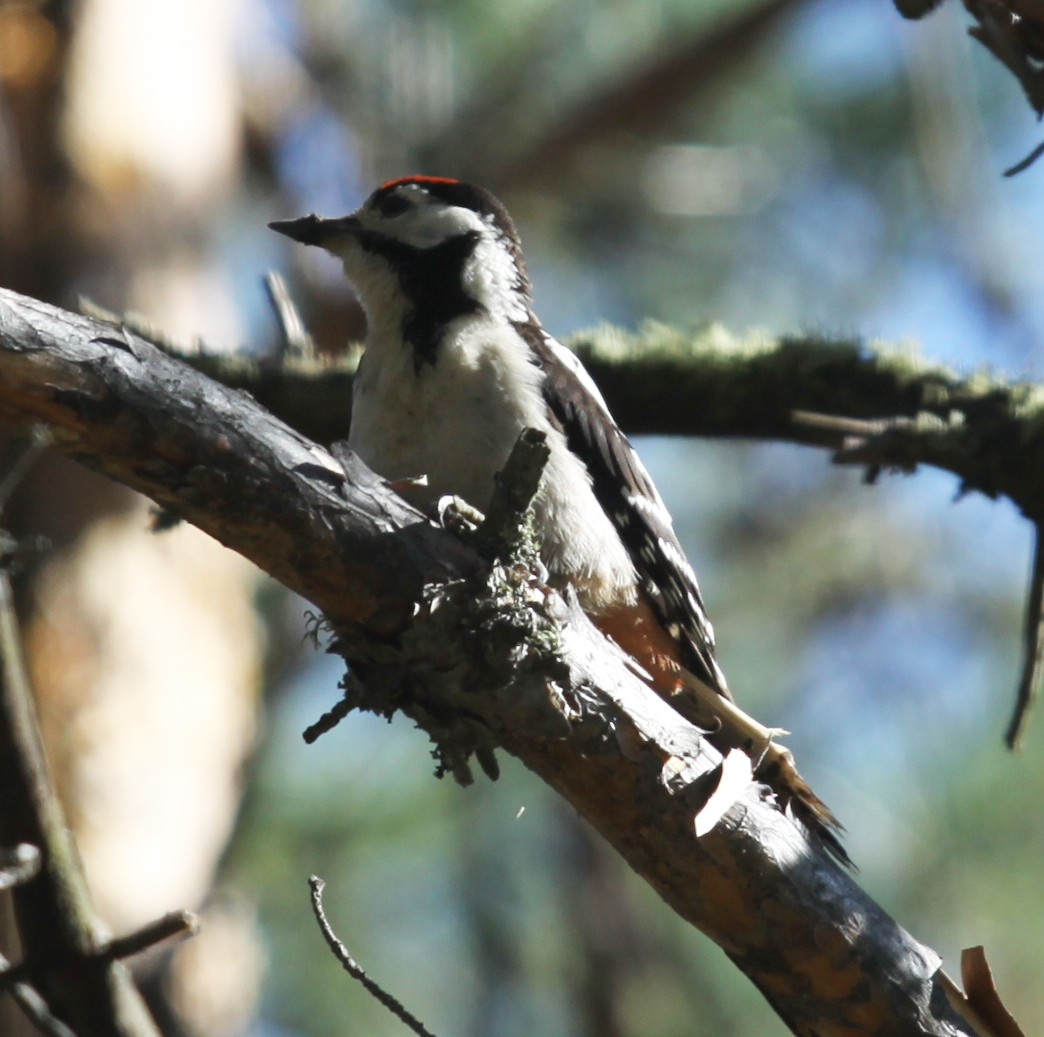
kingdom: Animalia
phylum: Chordata
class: Aves
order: Piciformes
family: Picidae
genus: Dendrocopos
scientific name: Dendrocopos major
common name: Great spotted woodpecker
